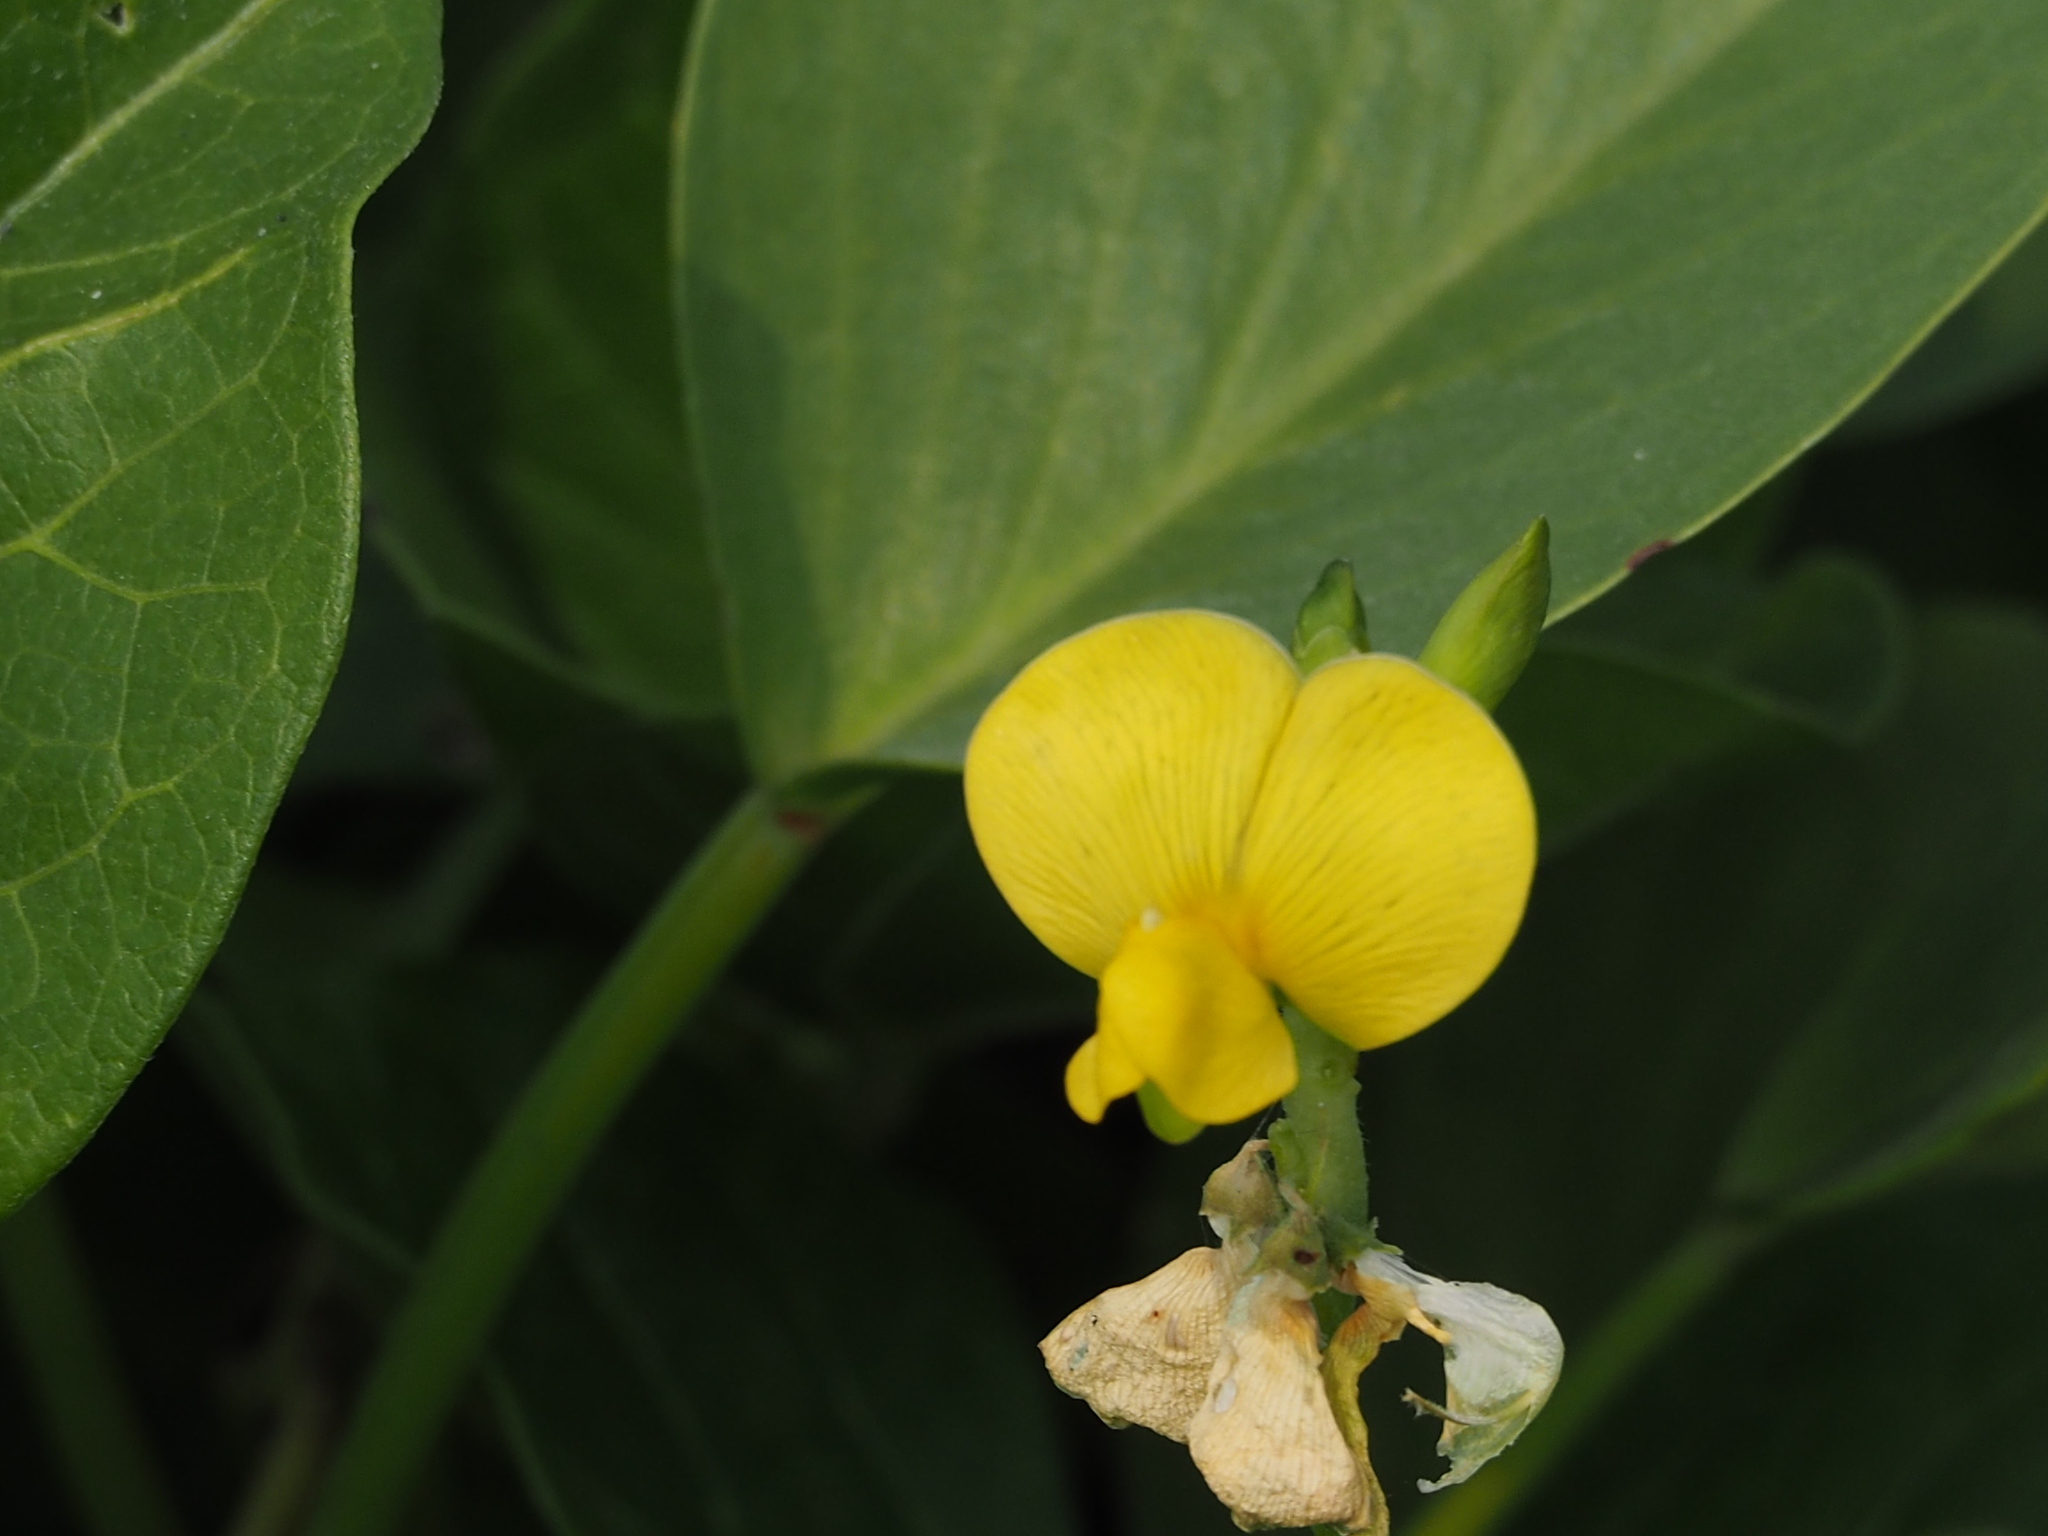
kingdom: Plantae
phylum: Tracheophyta
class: Magnoliopsida
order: Fabales
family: Fabaceae
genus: Vigna
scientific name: Vigna marina
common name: Dune-bean
